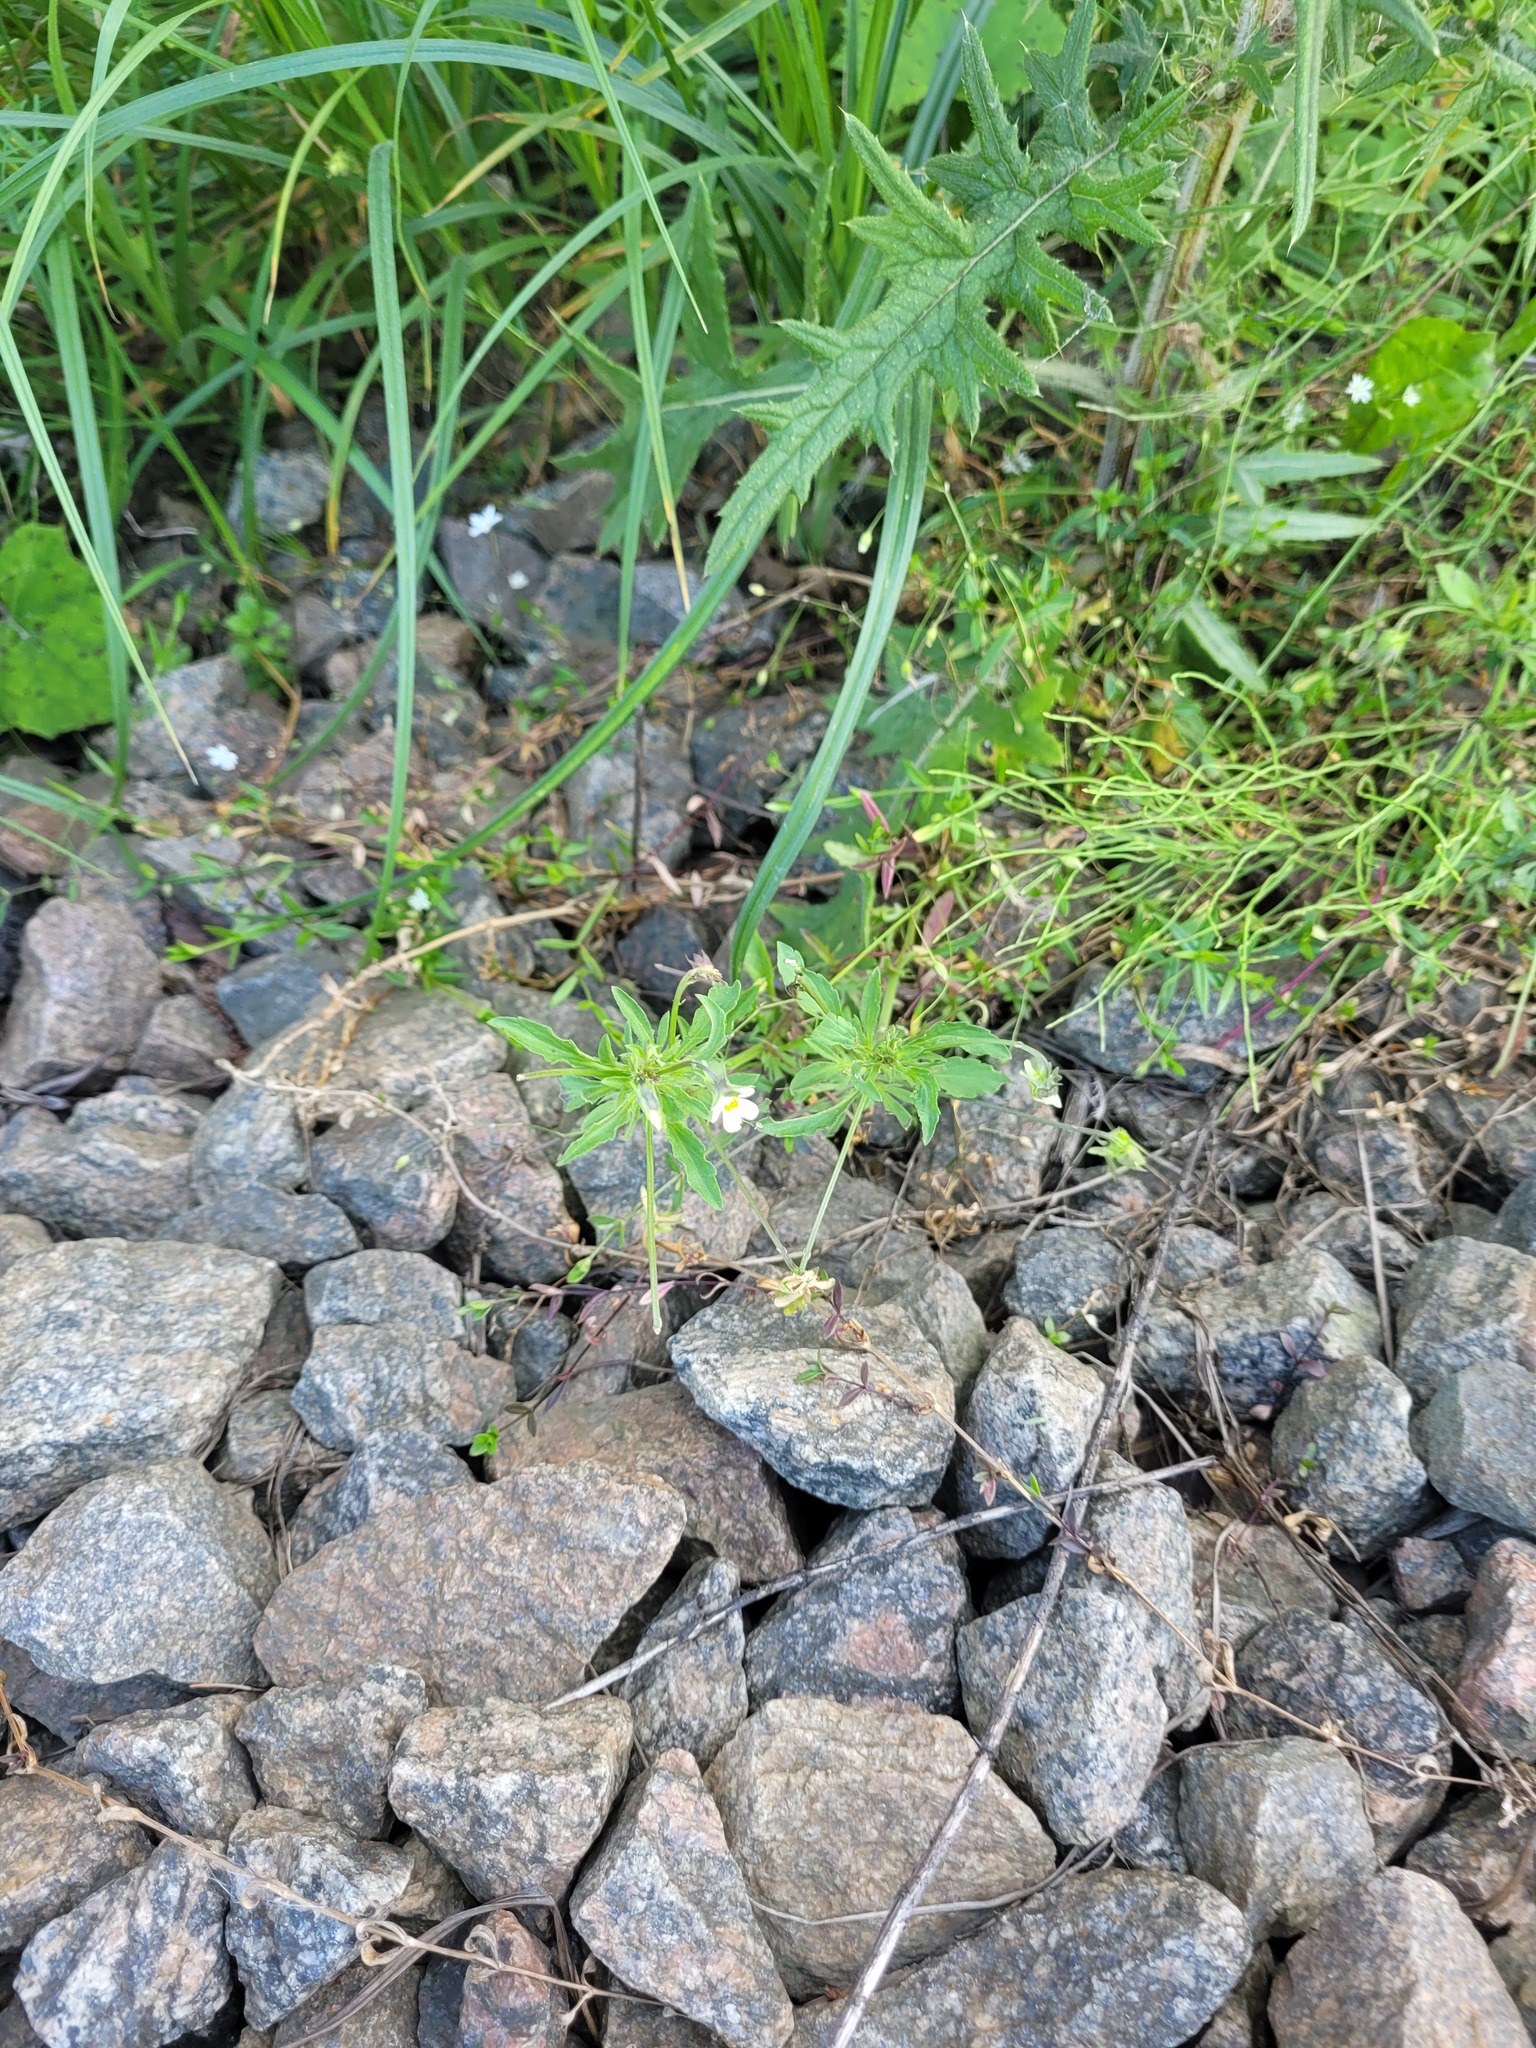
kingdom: Plantae
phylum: Tracheophyta
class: Magnoliopsida
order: Malpighiales
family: Violaceae
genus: Viola
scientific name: Viola arvensis
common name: Field pansy
